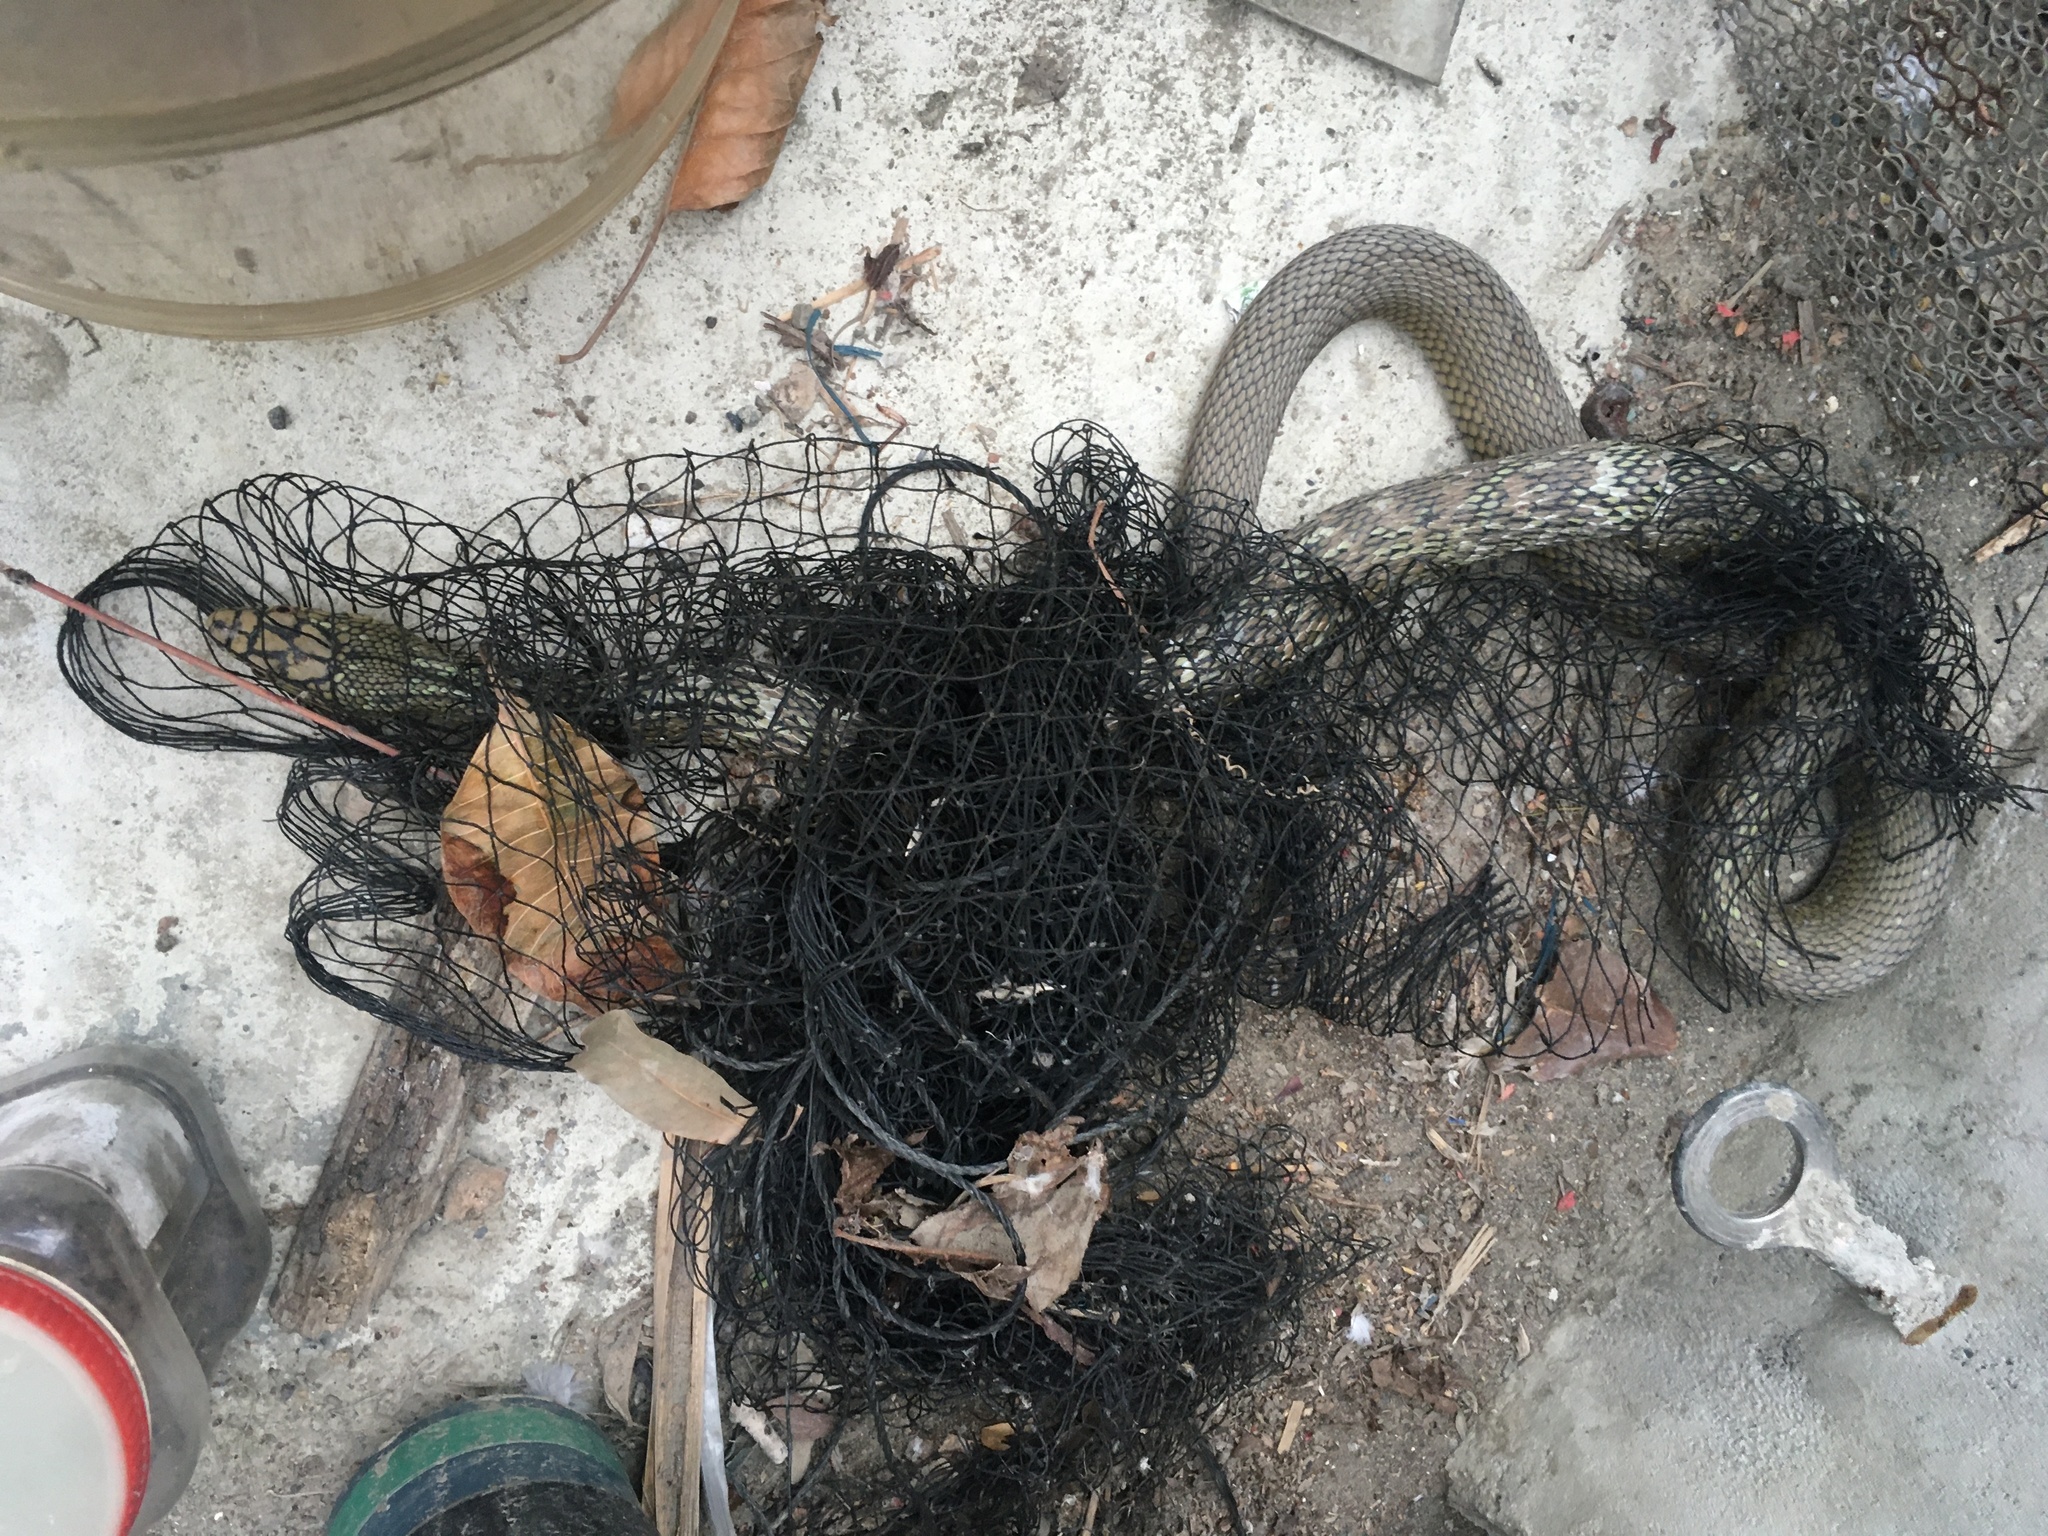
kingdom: Animalia
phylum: Chordata
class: Squamata
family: Colubridae
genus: Elaphe
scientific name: Elaphe carinata
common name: Taiwan stink snake
